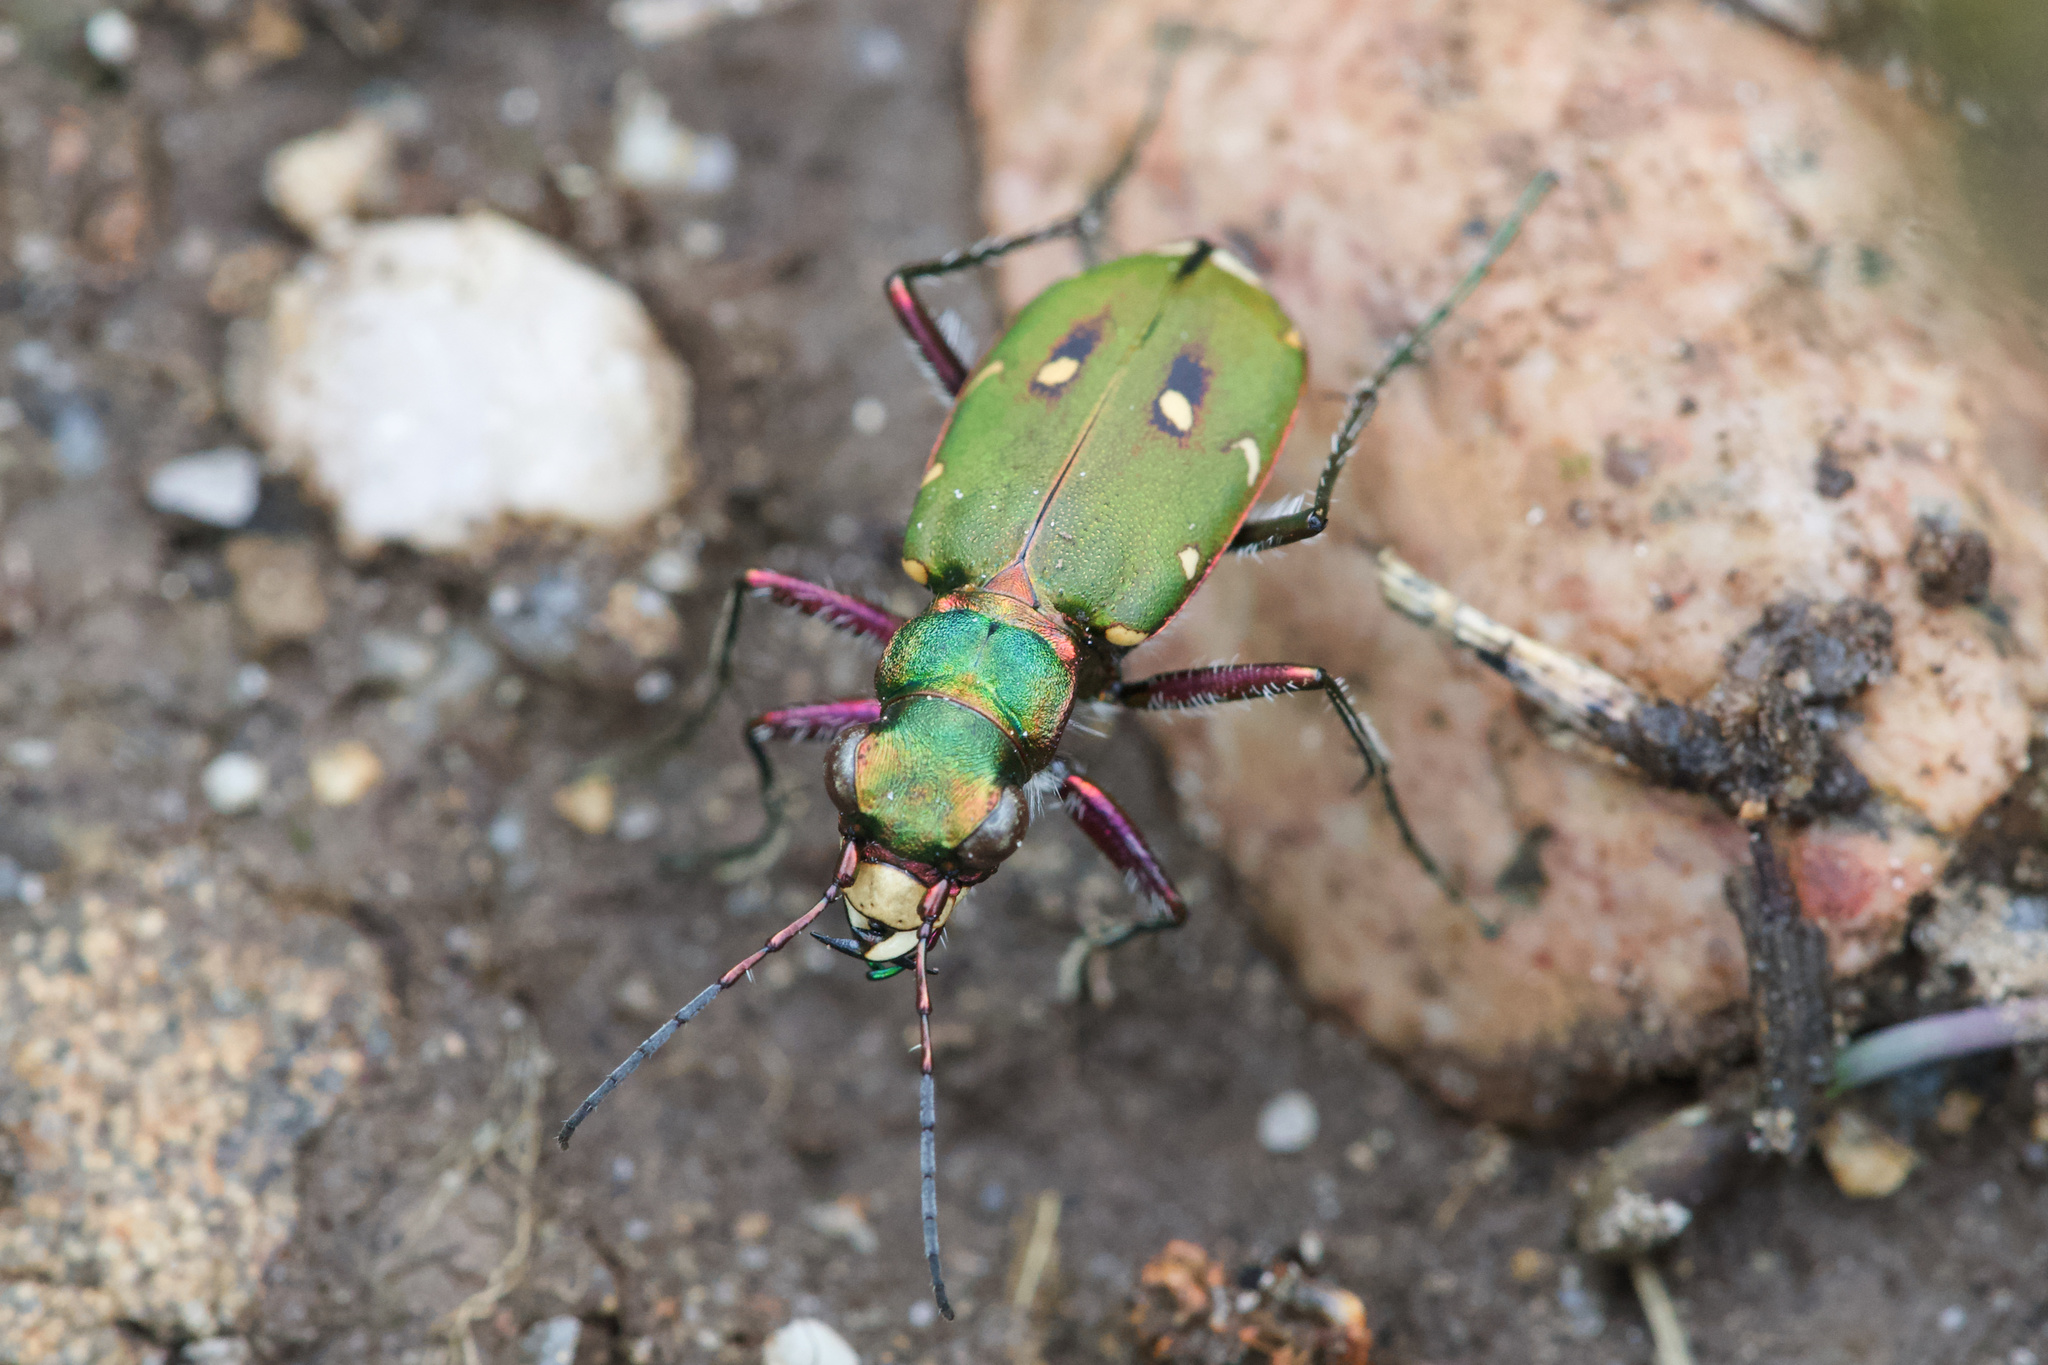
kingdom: Animalia
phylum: Arthropoda
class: Insecta
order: Coleoptera
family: Carabidae
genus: Cicindela
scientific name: Cicindela campestris
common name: Common tiger beetle
